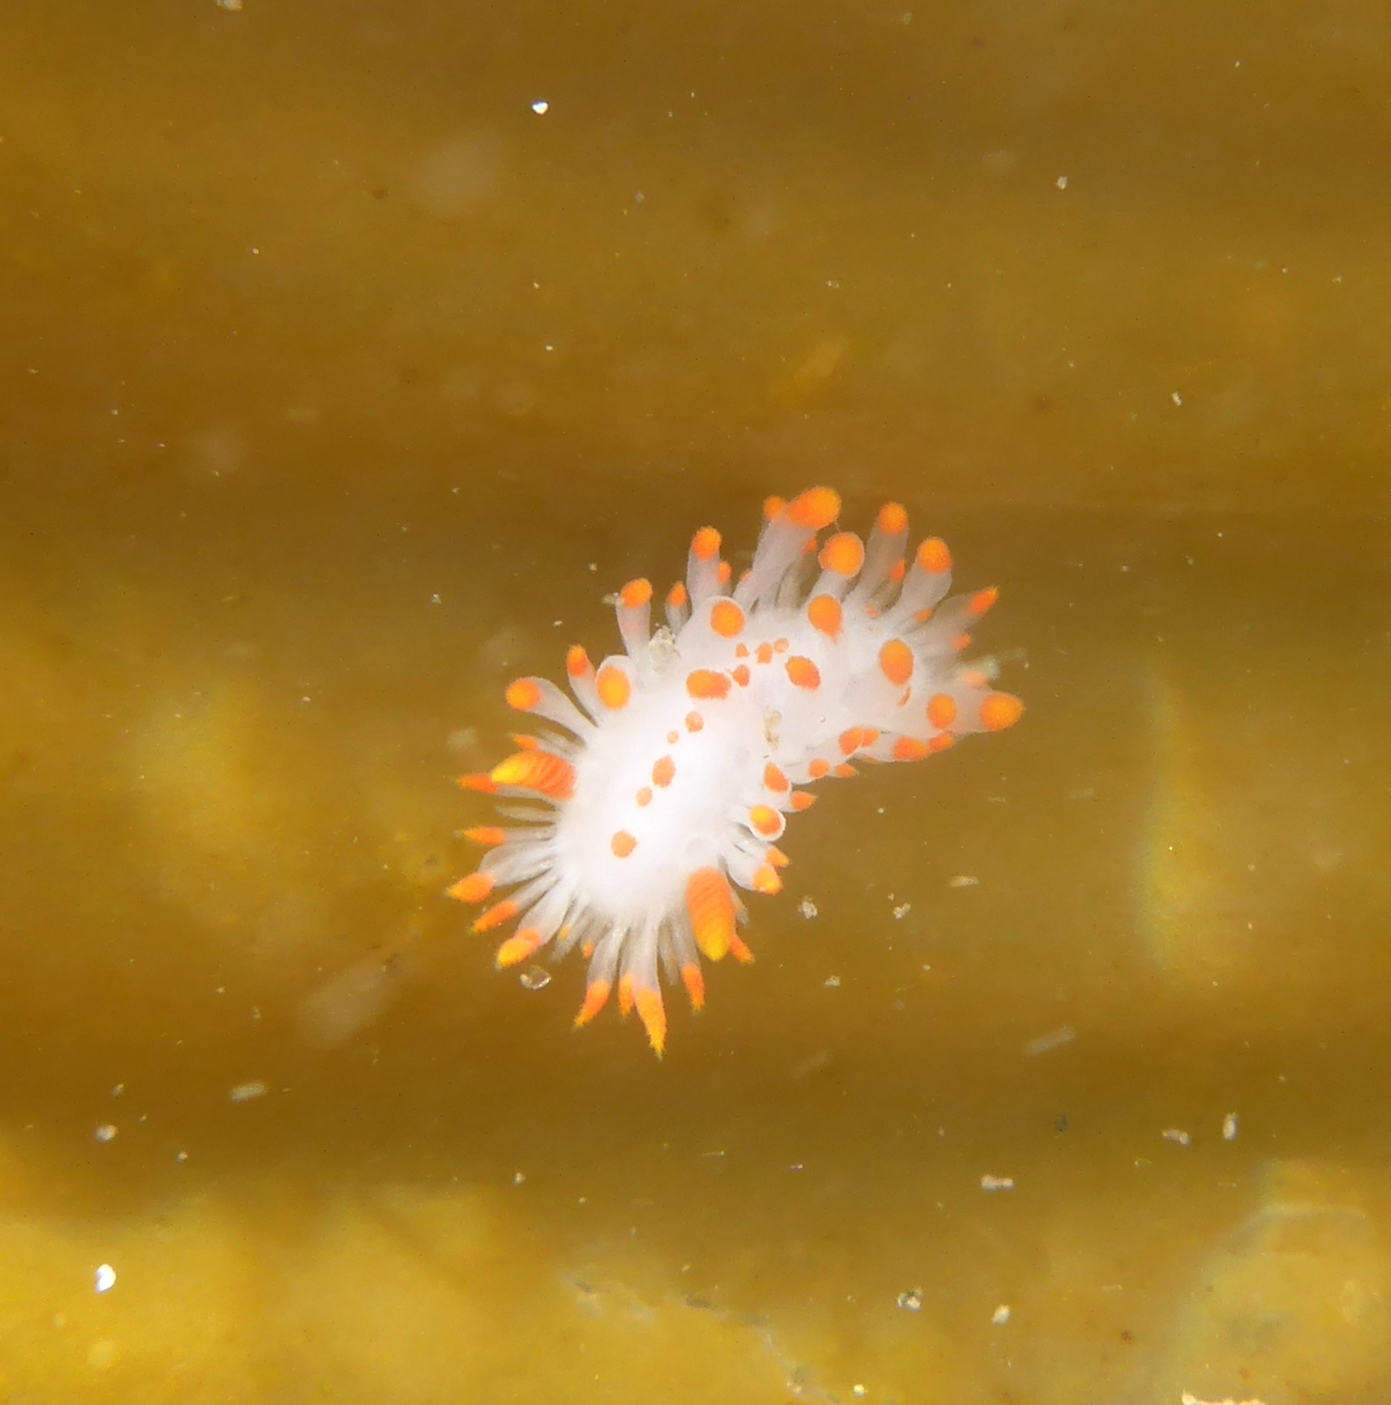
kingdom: Animalia
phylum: Mollusca
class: Gastropoda
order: Nudibranchia
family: Polyceridae
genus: Limacia
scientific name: Limacia mcdonaldi
